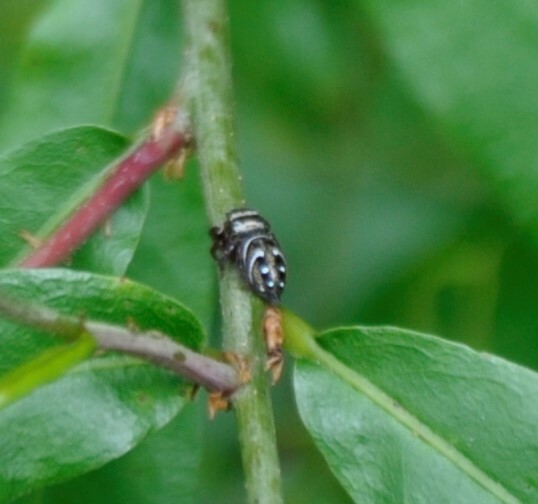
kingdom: Animalia
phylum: Arthropoda
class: Arachnida
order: Araneae
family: Salticidae
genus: Phidippus
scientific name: Phidippus clarus
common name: Brilliant jumping spider
